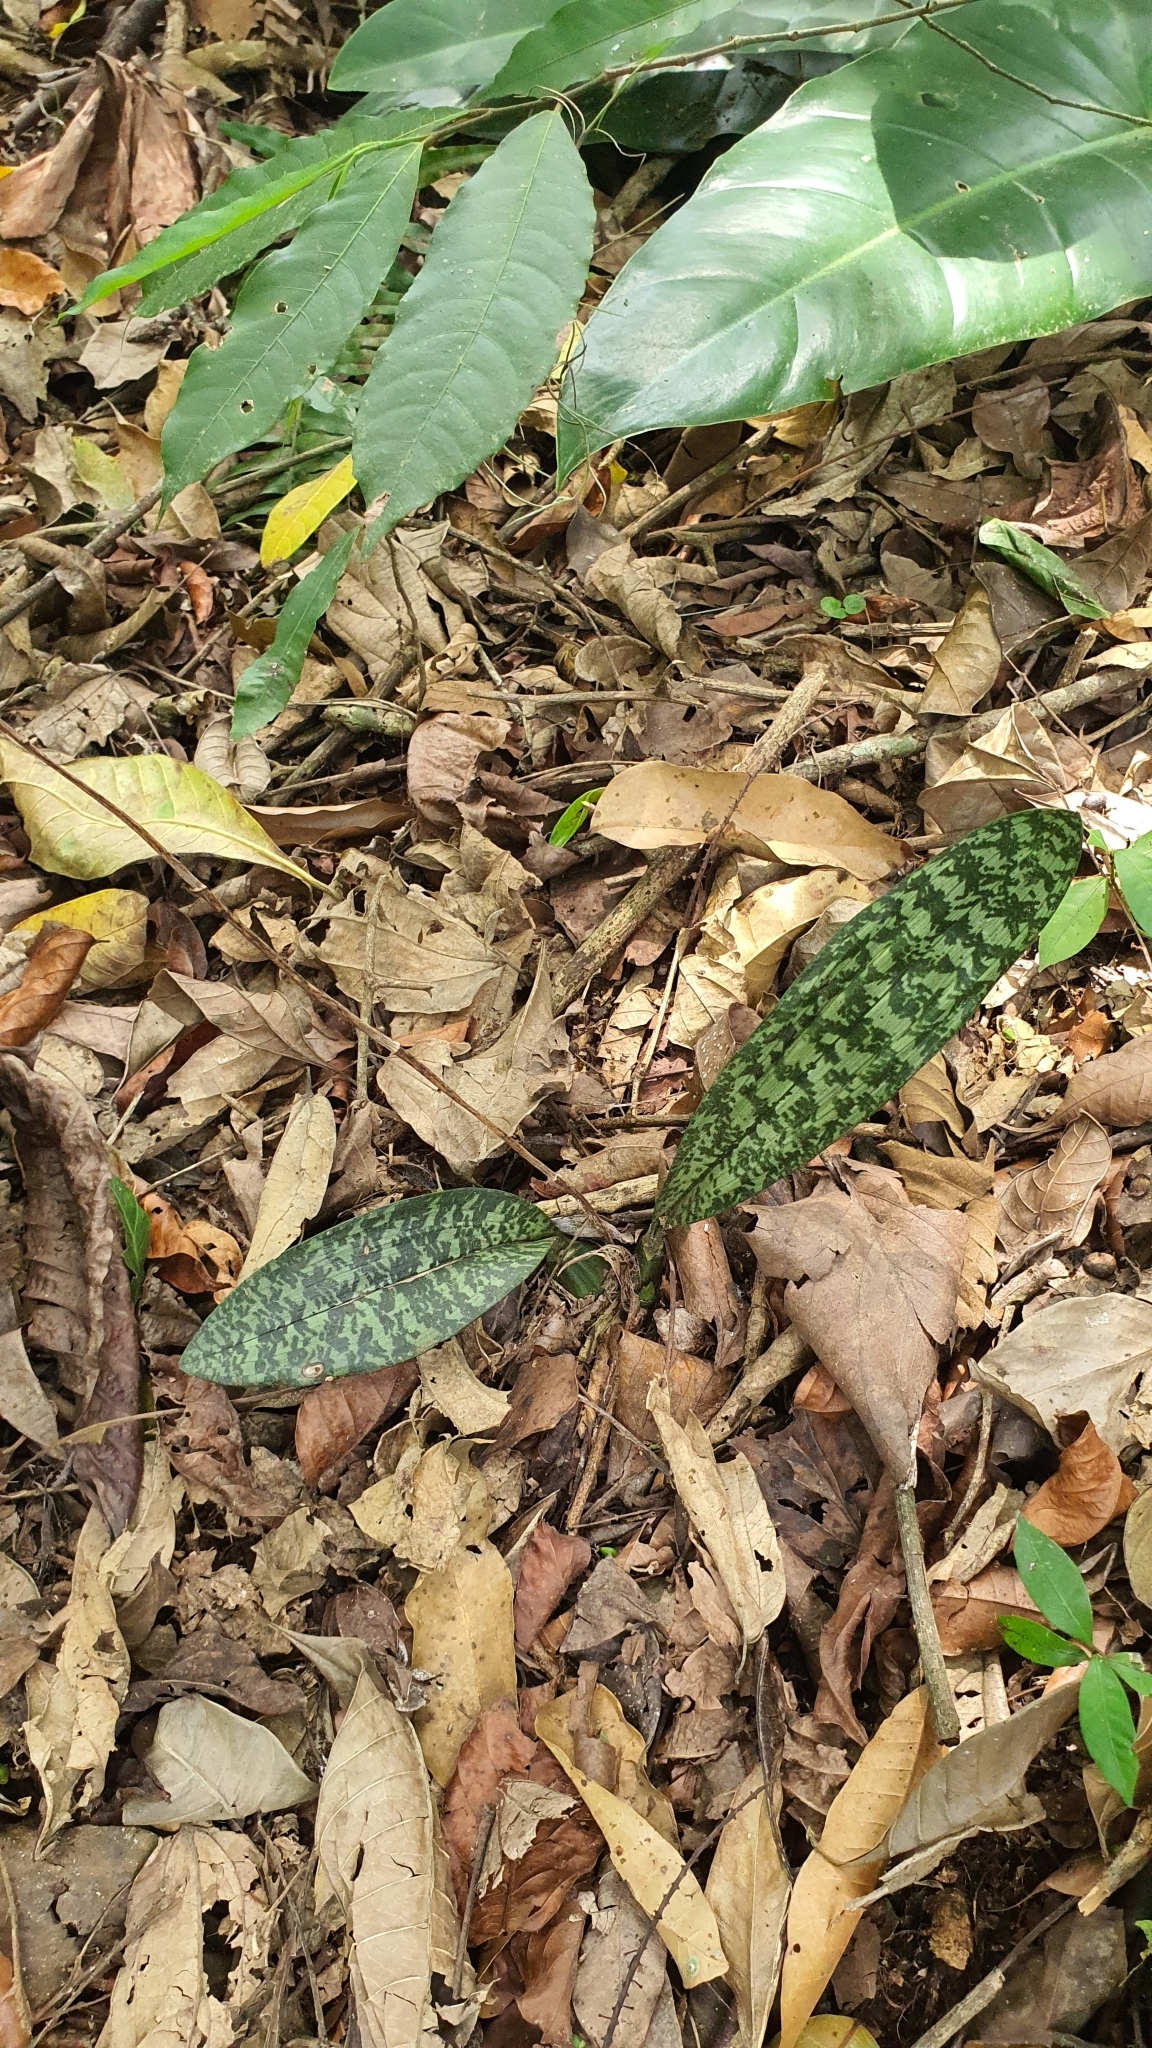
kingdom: Plantae
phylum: Tracheophyta
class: Liliopsida
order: Asparagales
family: Orchidaceae
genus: Eulophia
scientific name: Eulophia maculata
